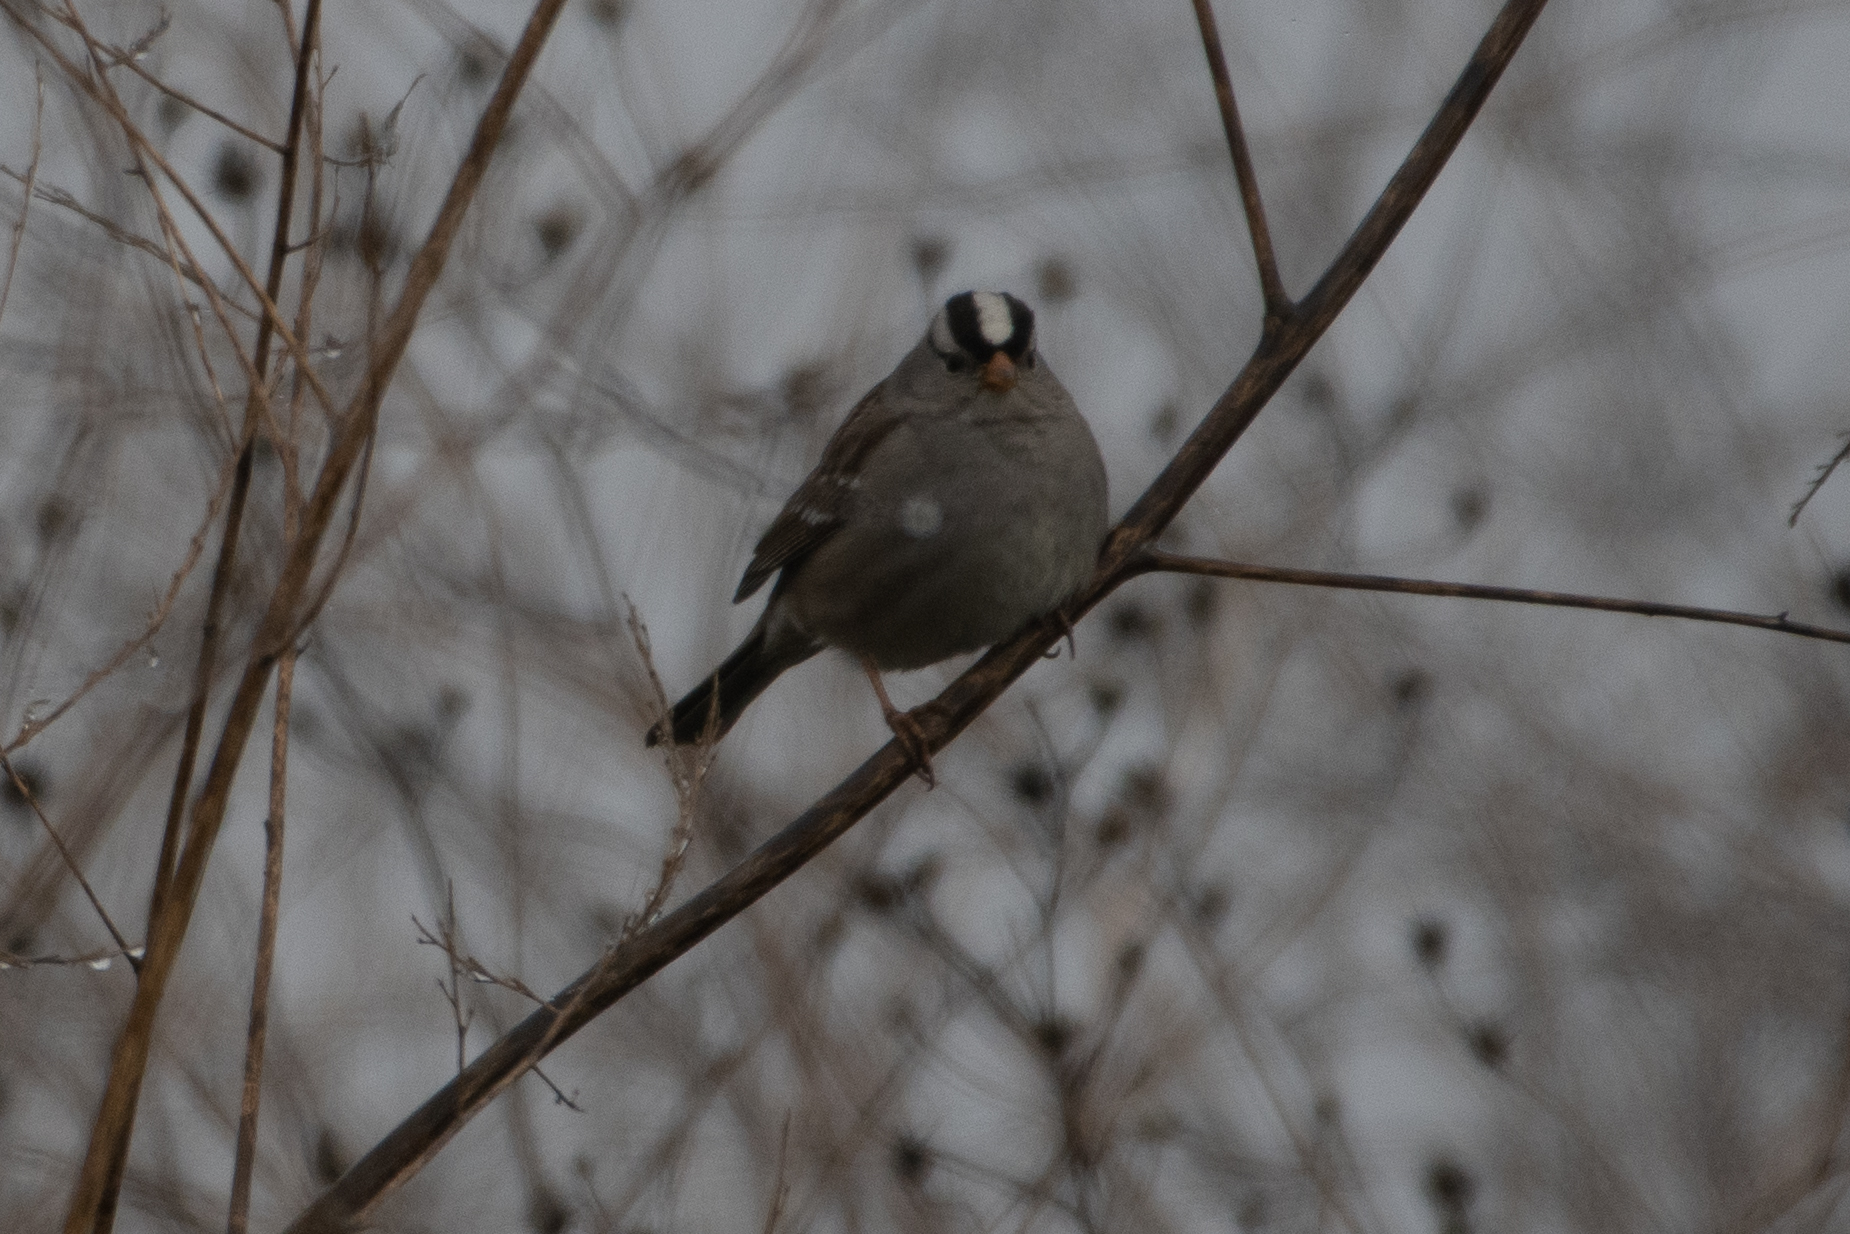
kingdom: Animalia
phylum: Chordata
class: Aves
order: Passeriformes
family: Passerellidae
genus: Zonotrichia
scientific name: Zonotrichia leucophrys
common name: White-crowned sparrow
